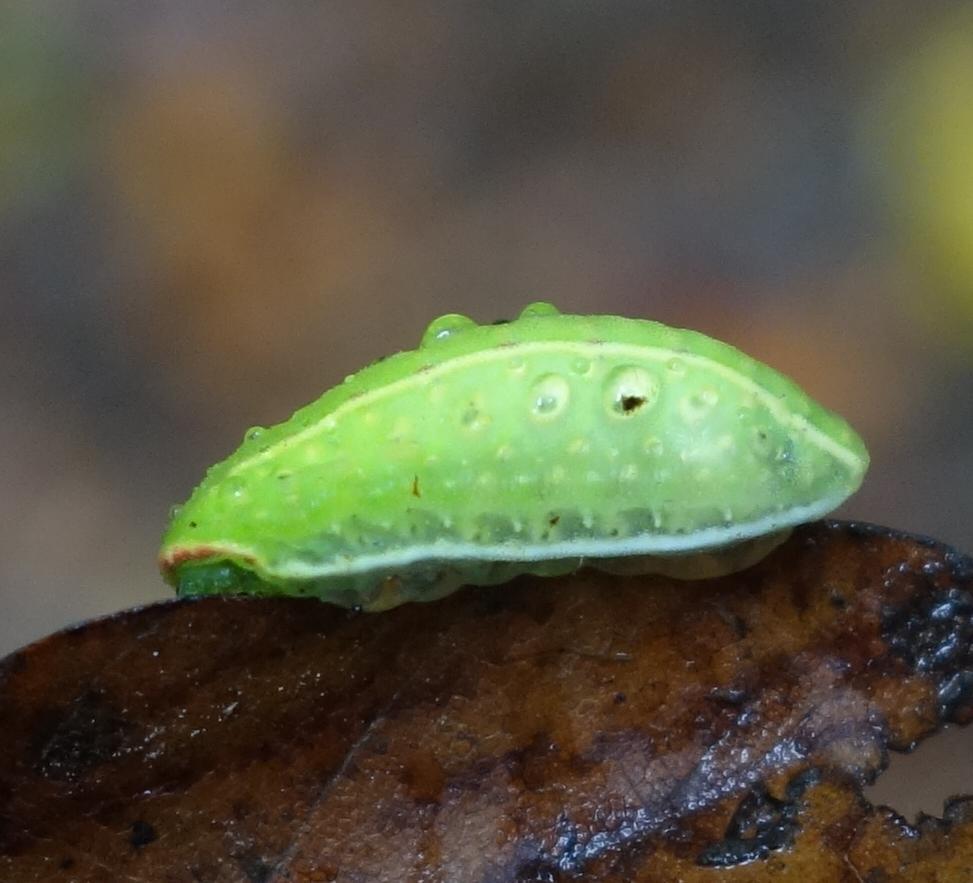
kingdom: Animalia
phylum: Arthropoda
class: Insecta
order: Lepidoptera
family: Limacodidae
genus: Apoda
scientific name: Apoda limacodes
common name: Festoon
